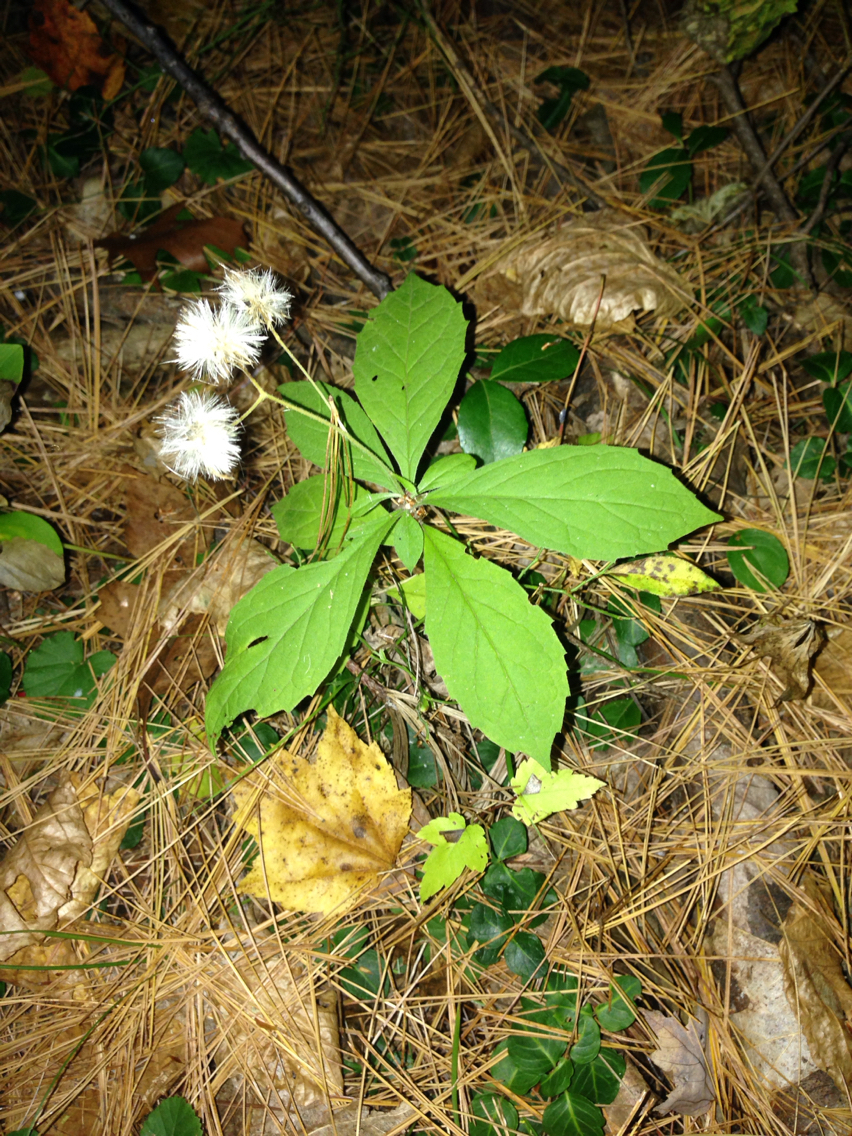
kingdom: Plantae
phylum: Tracheophyta
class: Magnoliopsida
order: Asterales
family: Asteraceae
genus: Oclemena
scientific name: Oclemena acuminata
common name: Mountain aster
